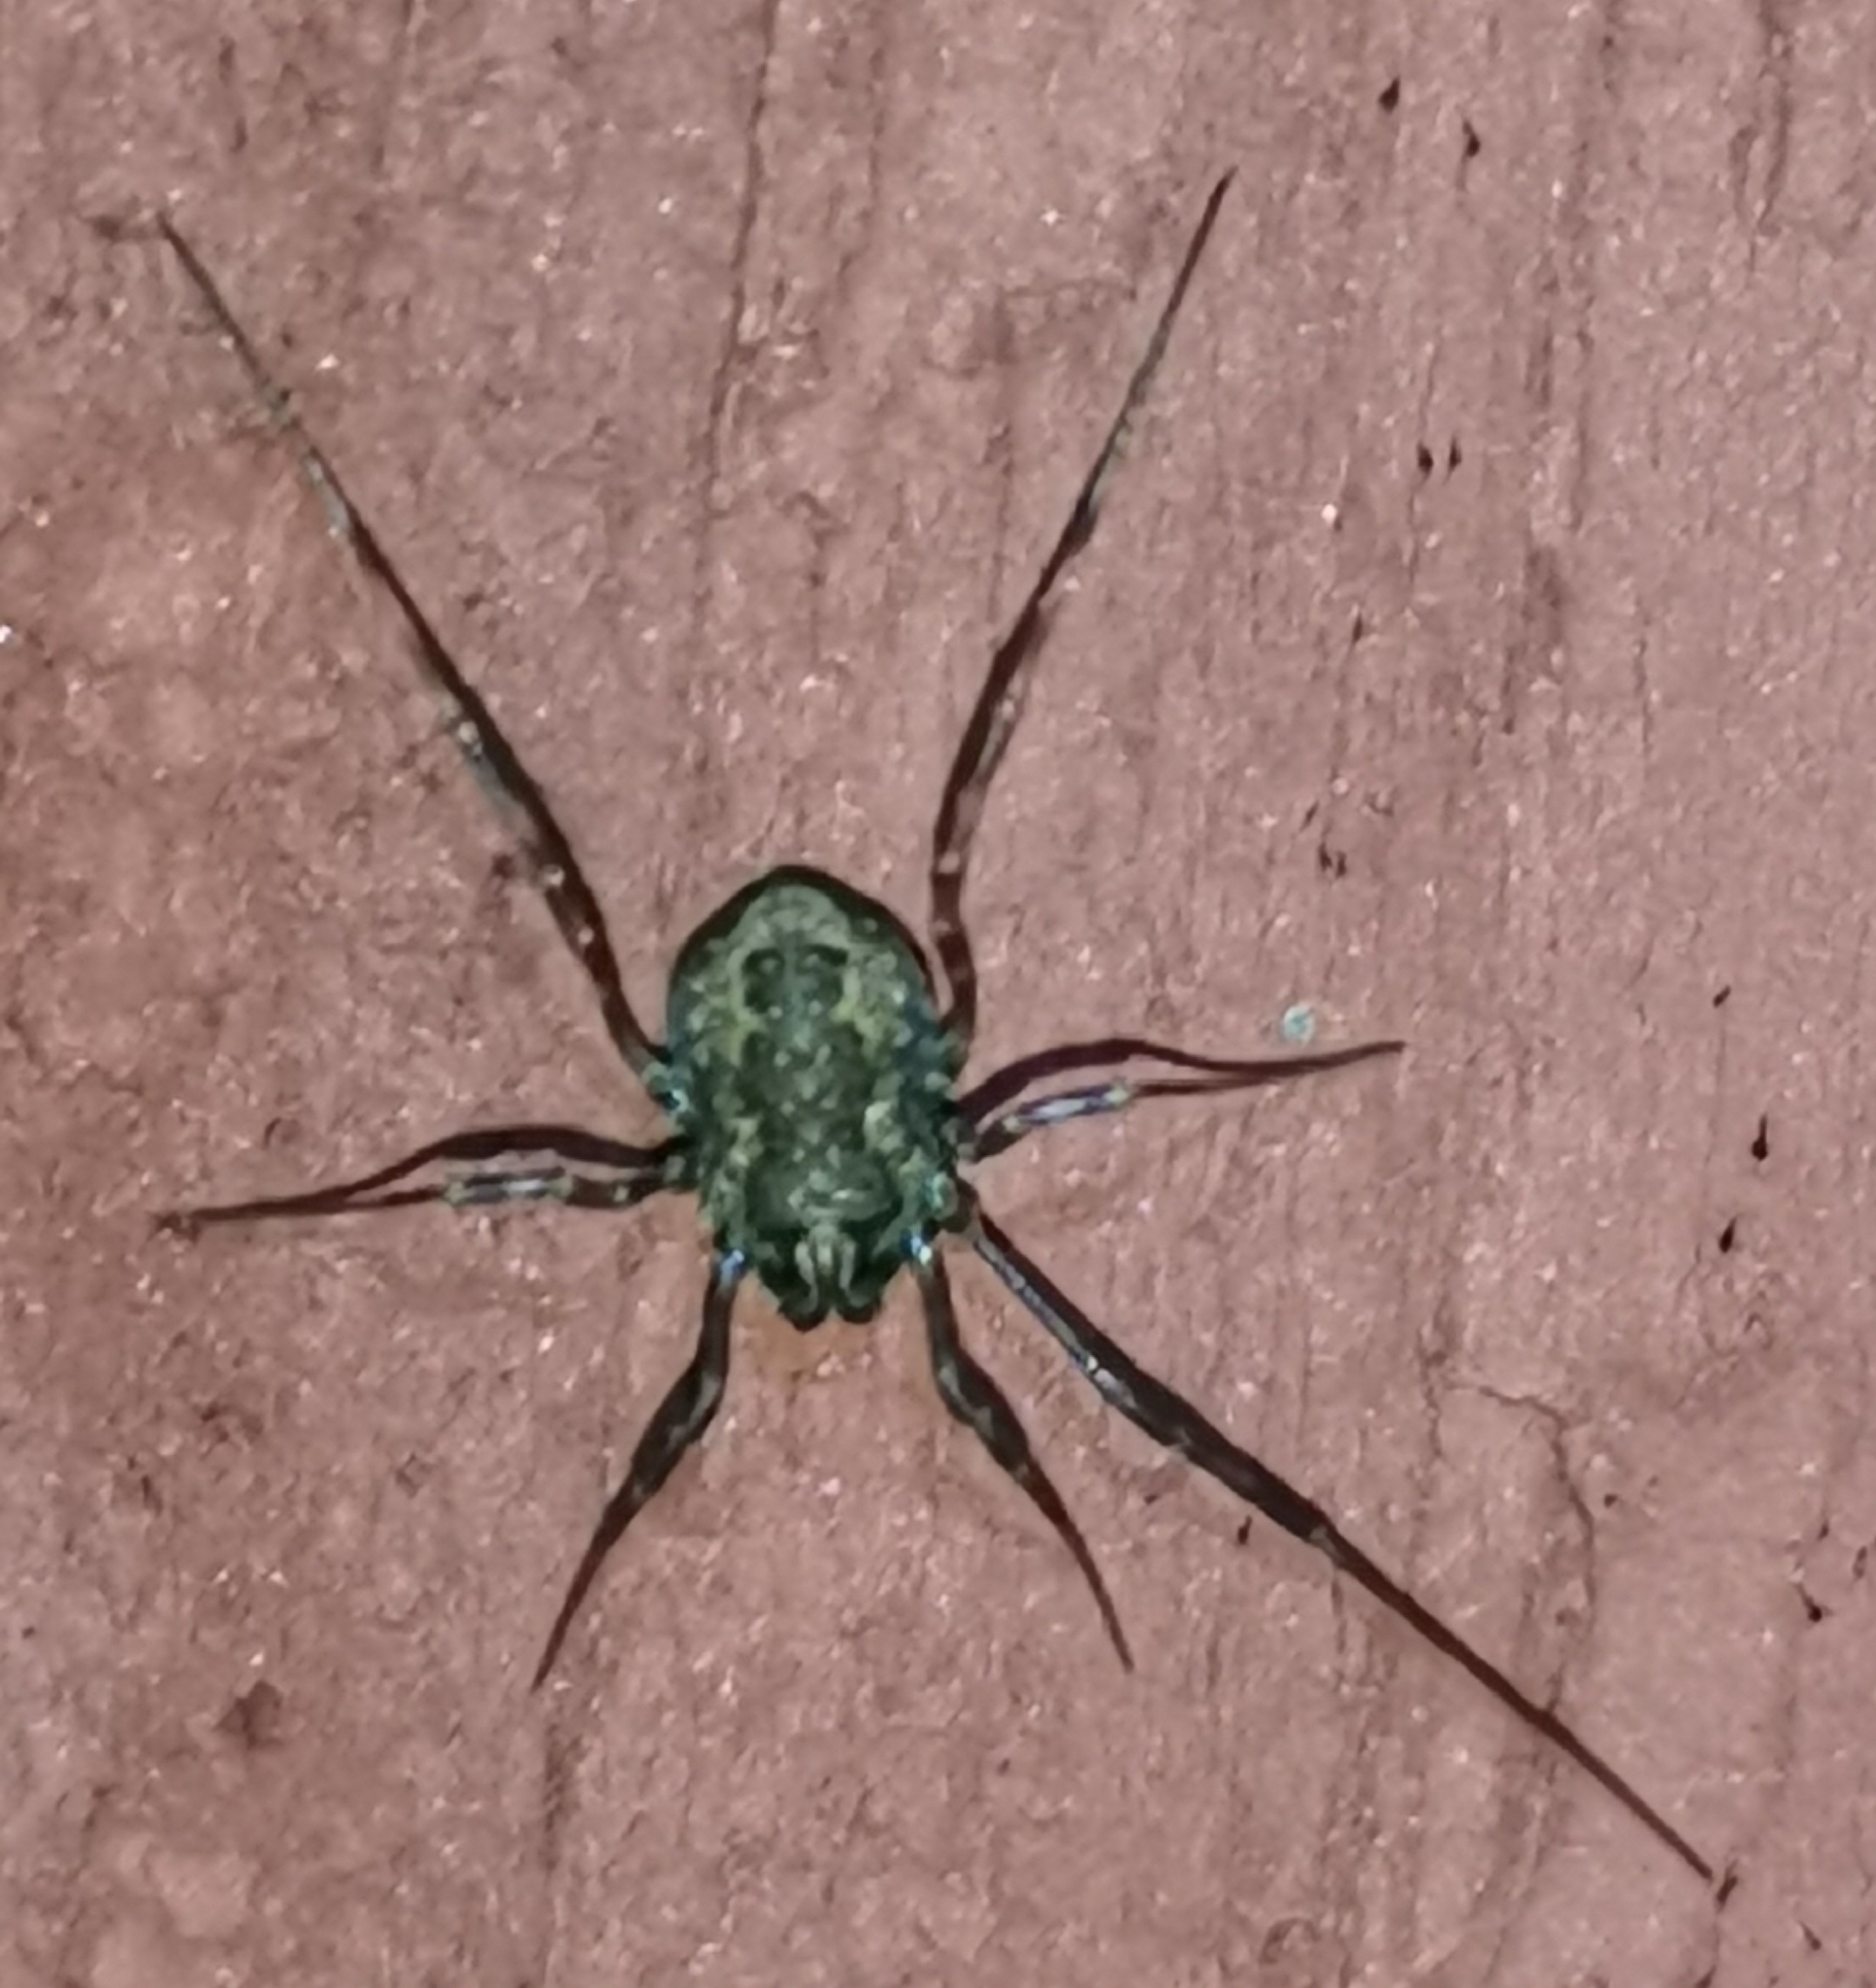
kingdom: Animalia
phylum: Arthropoda
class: Arachnida
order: Opiliones
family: Phalangiidae
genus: Rilaena
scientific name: Rilaena triangularis
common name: Spring harvestman
